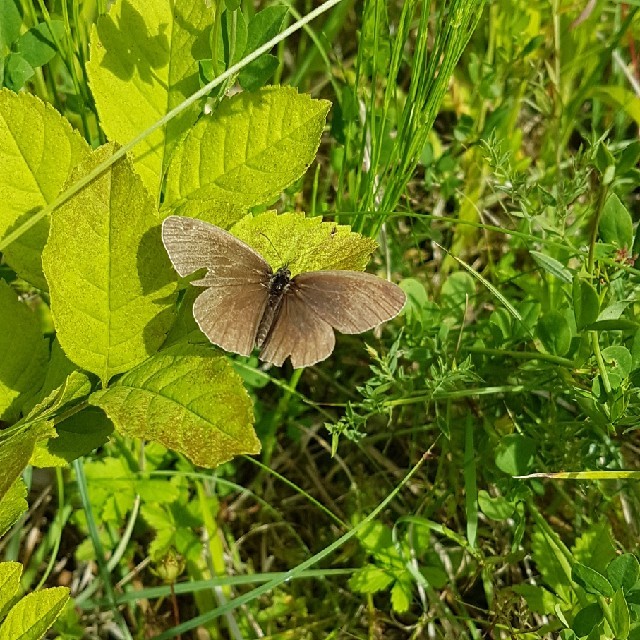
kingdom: Animalia
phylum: Arthropoda
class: Insecta
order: Lepidoptera
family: Nymphalidae
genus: Aphantopus
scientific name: Aphantopus hyperantus
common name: Ringlet
